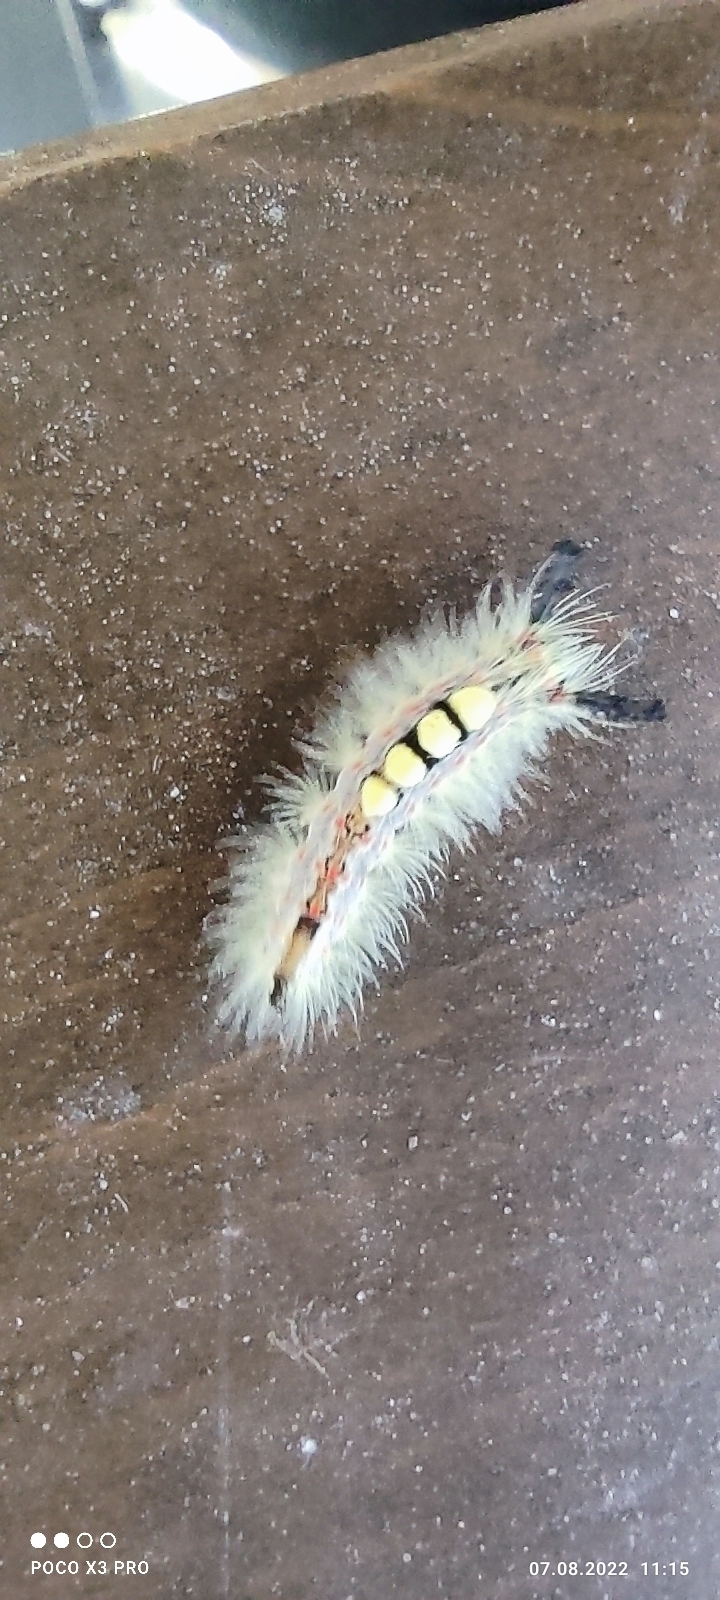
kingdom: Animalia
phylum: Arthropoda
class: Insecta
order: Lepidoptera
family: Erebidae
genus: Orgyia
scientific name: Orgyia antiqua
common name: Vapourer
